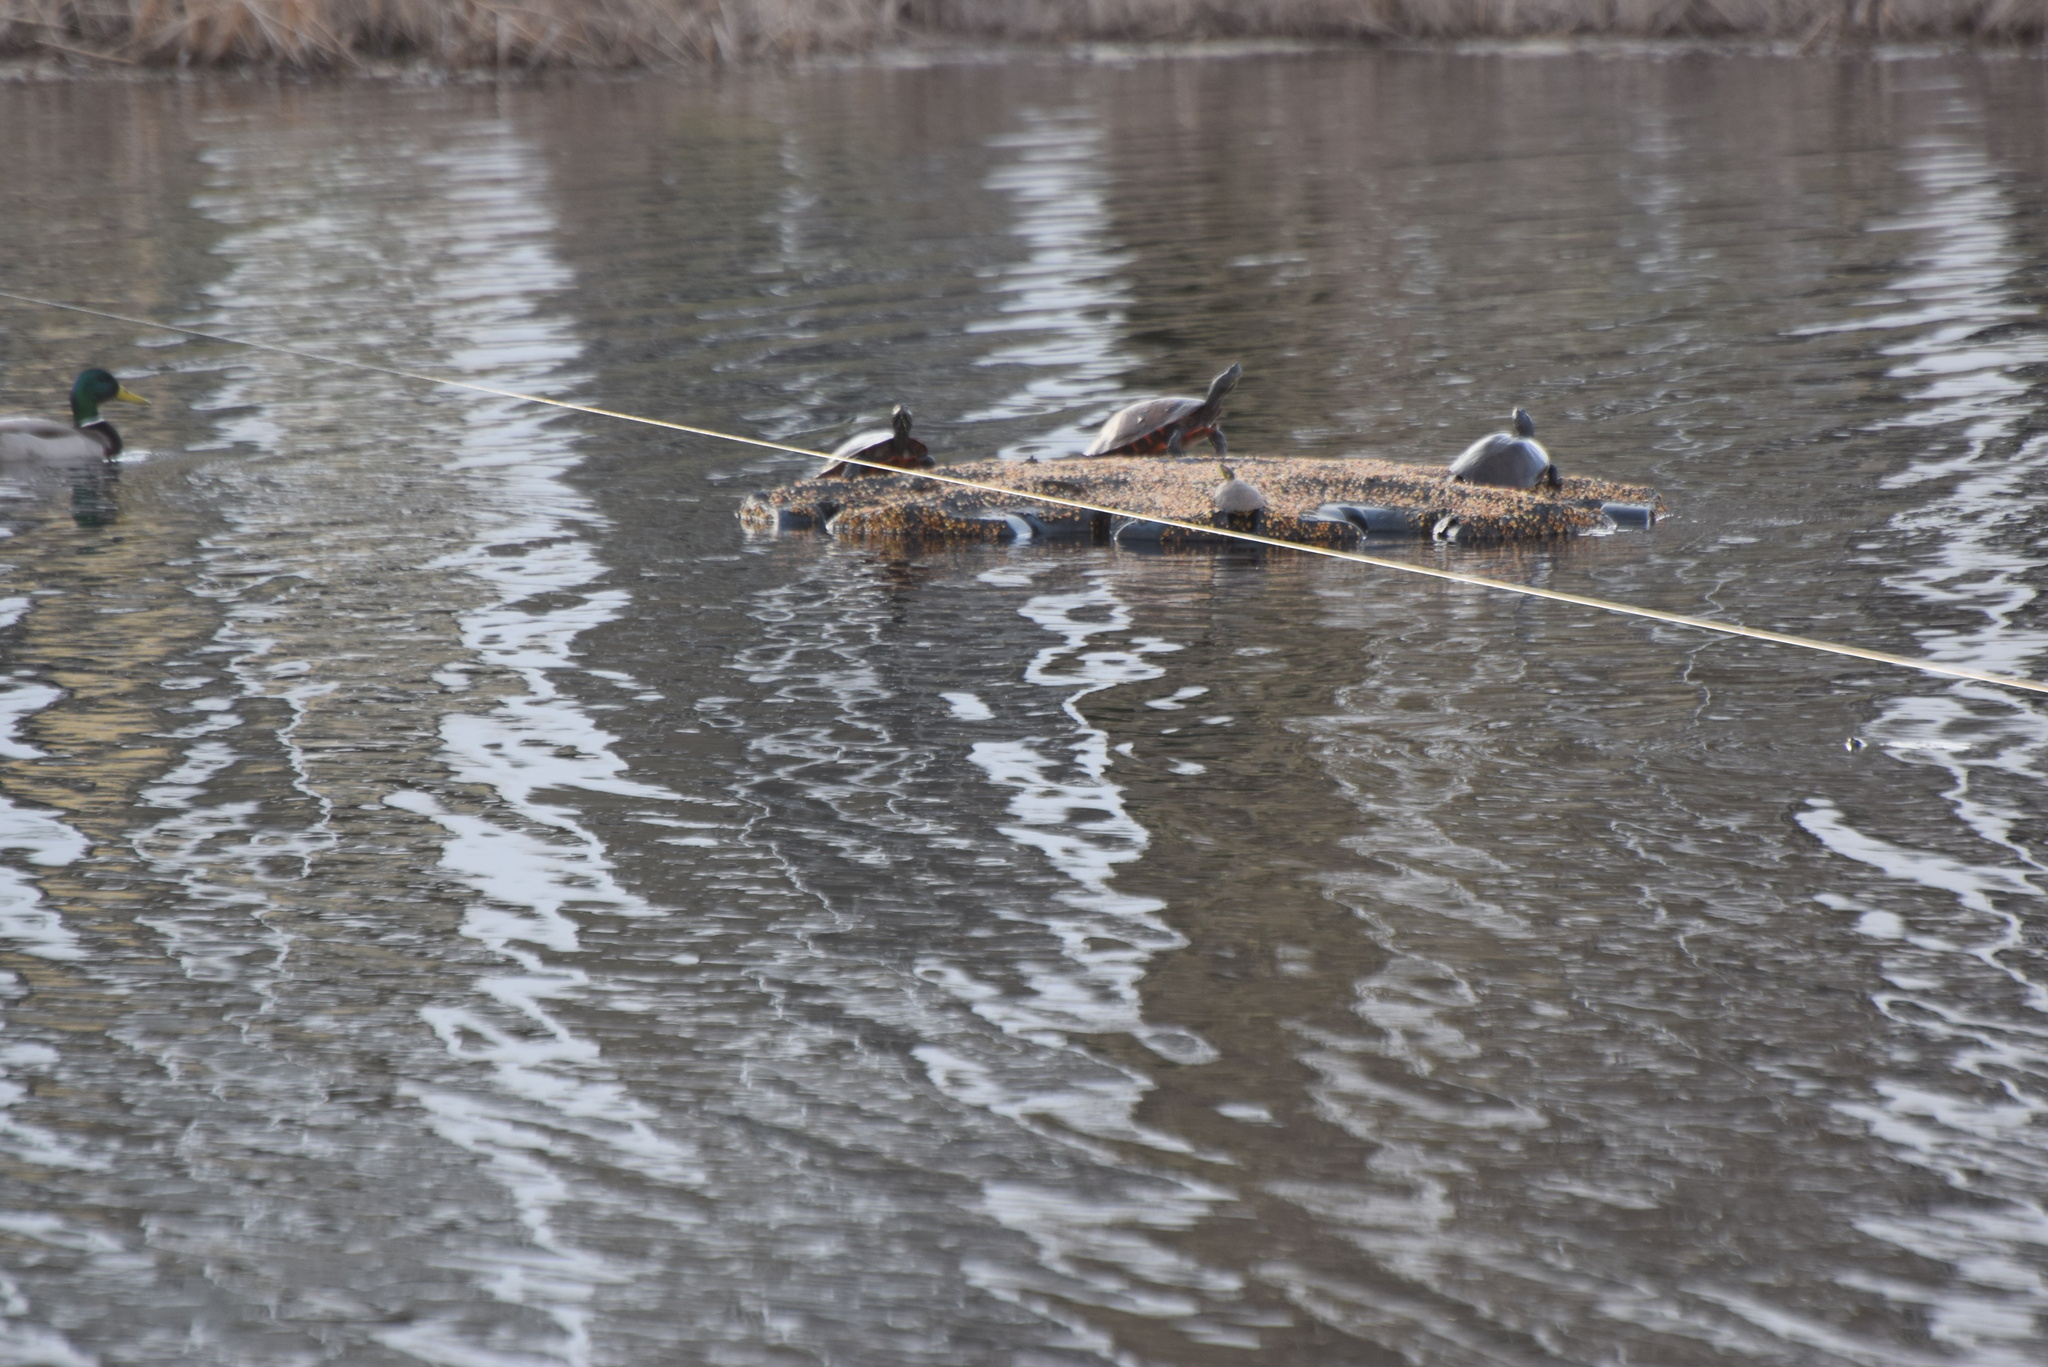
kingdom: Animalia
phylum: Chordata
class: Aves
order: Anseriformes
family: Anatidae
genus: Anas
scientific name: Anas platyrhynchos
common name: Mallard
